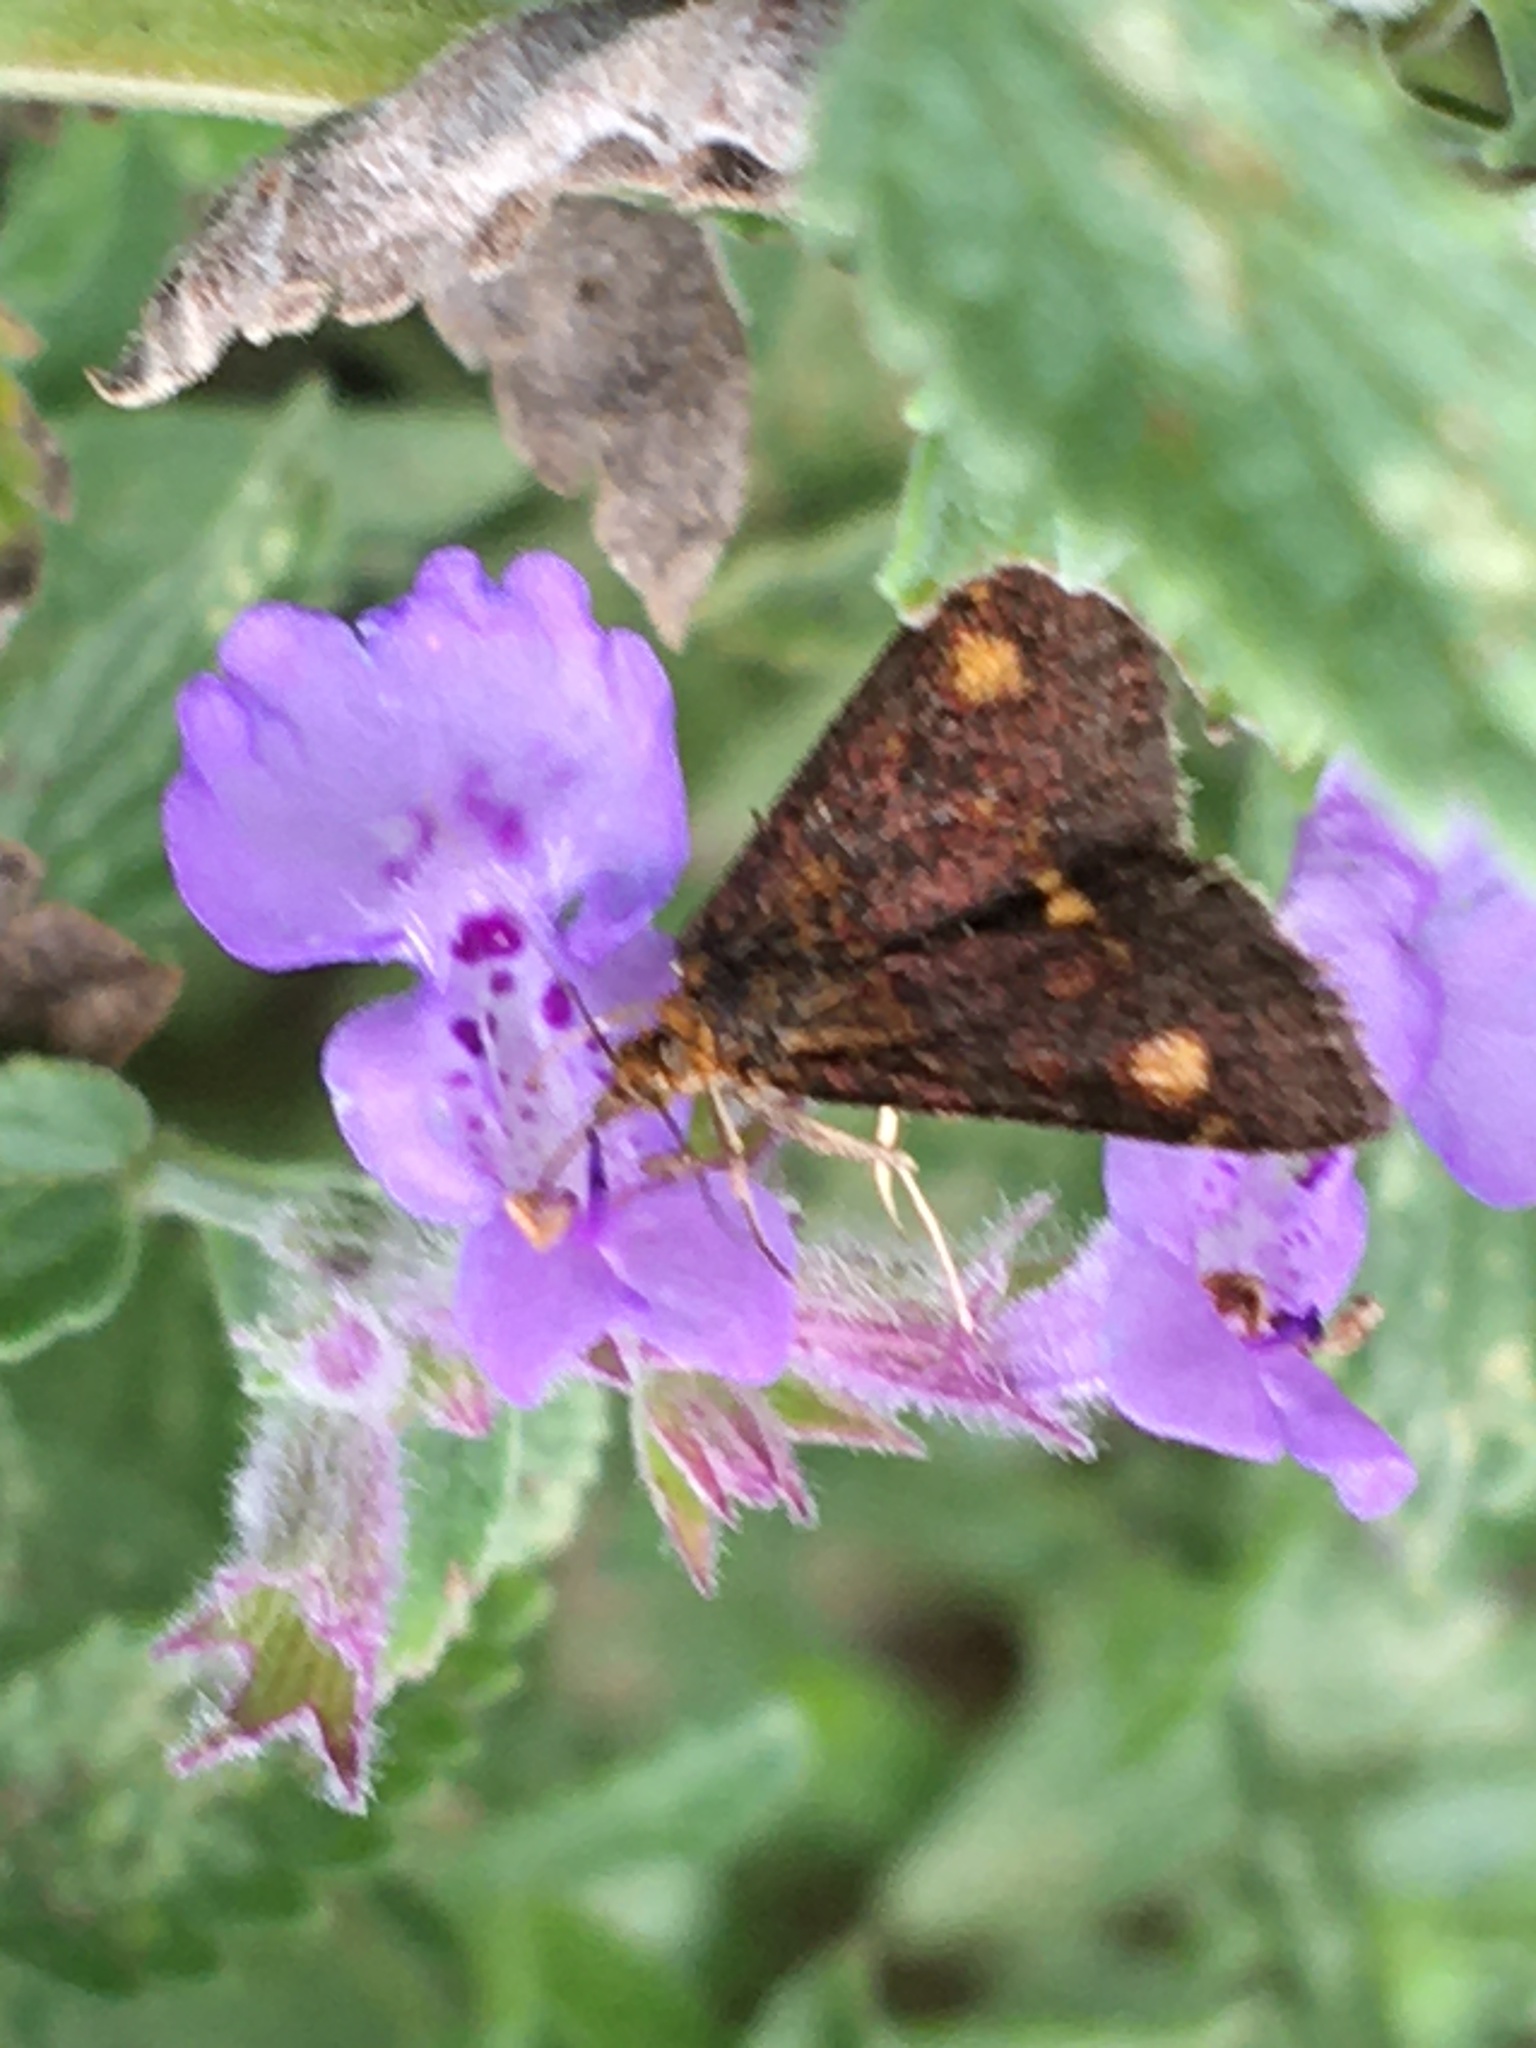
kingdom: Animalia
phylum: Arthropoda
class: Insecta
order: Lepidoptera
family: Crambidae
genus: Pyrausta
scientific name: Pyrausta aurata
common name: Small purple & gold
